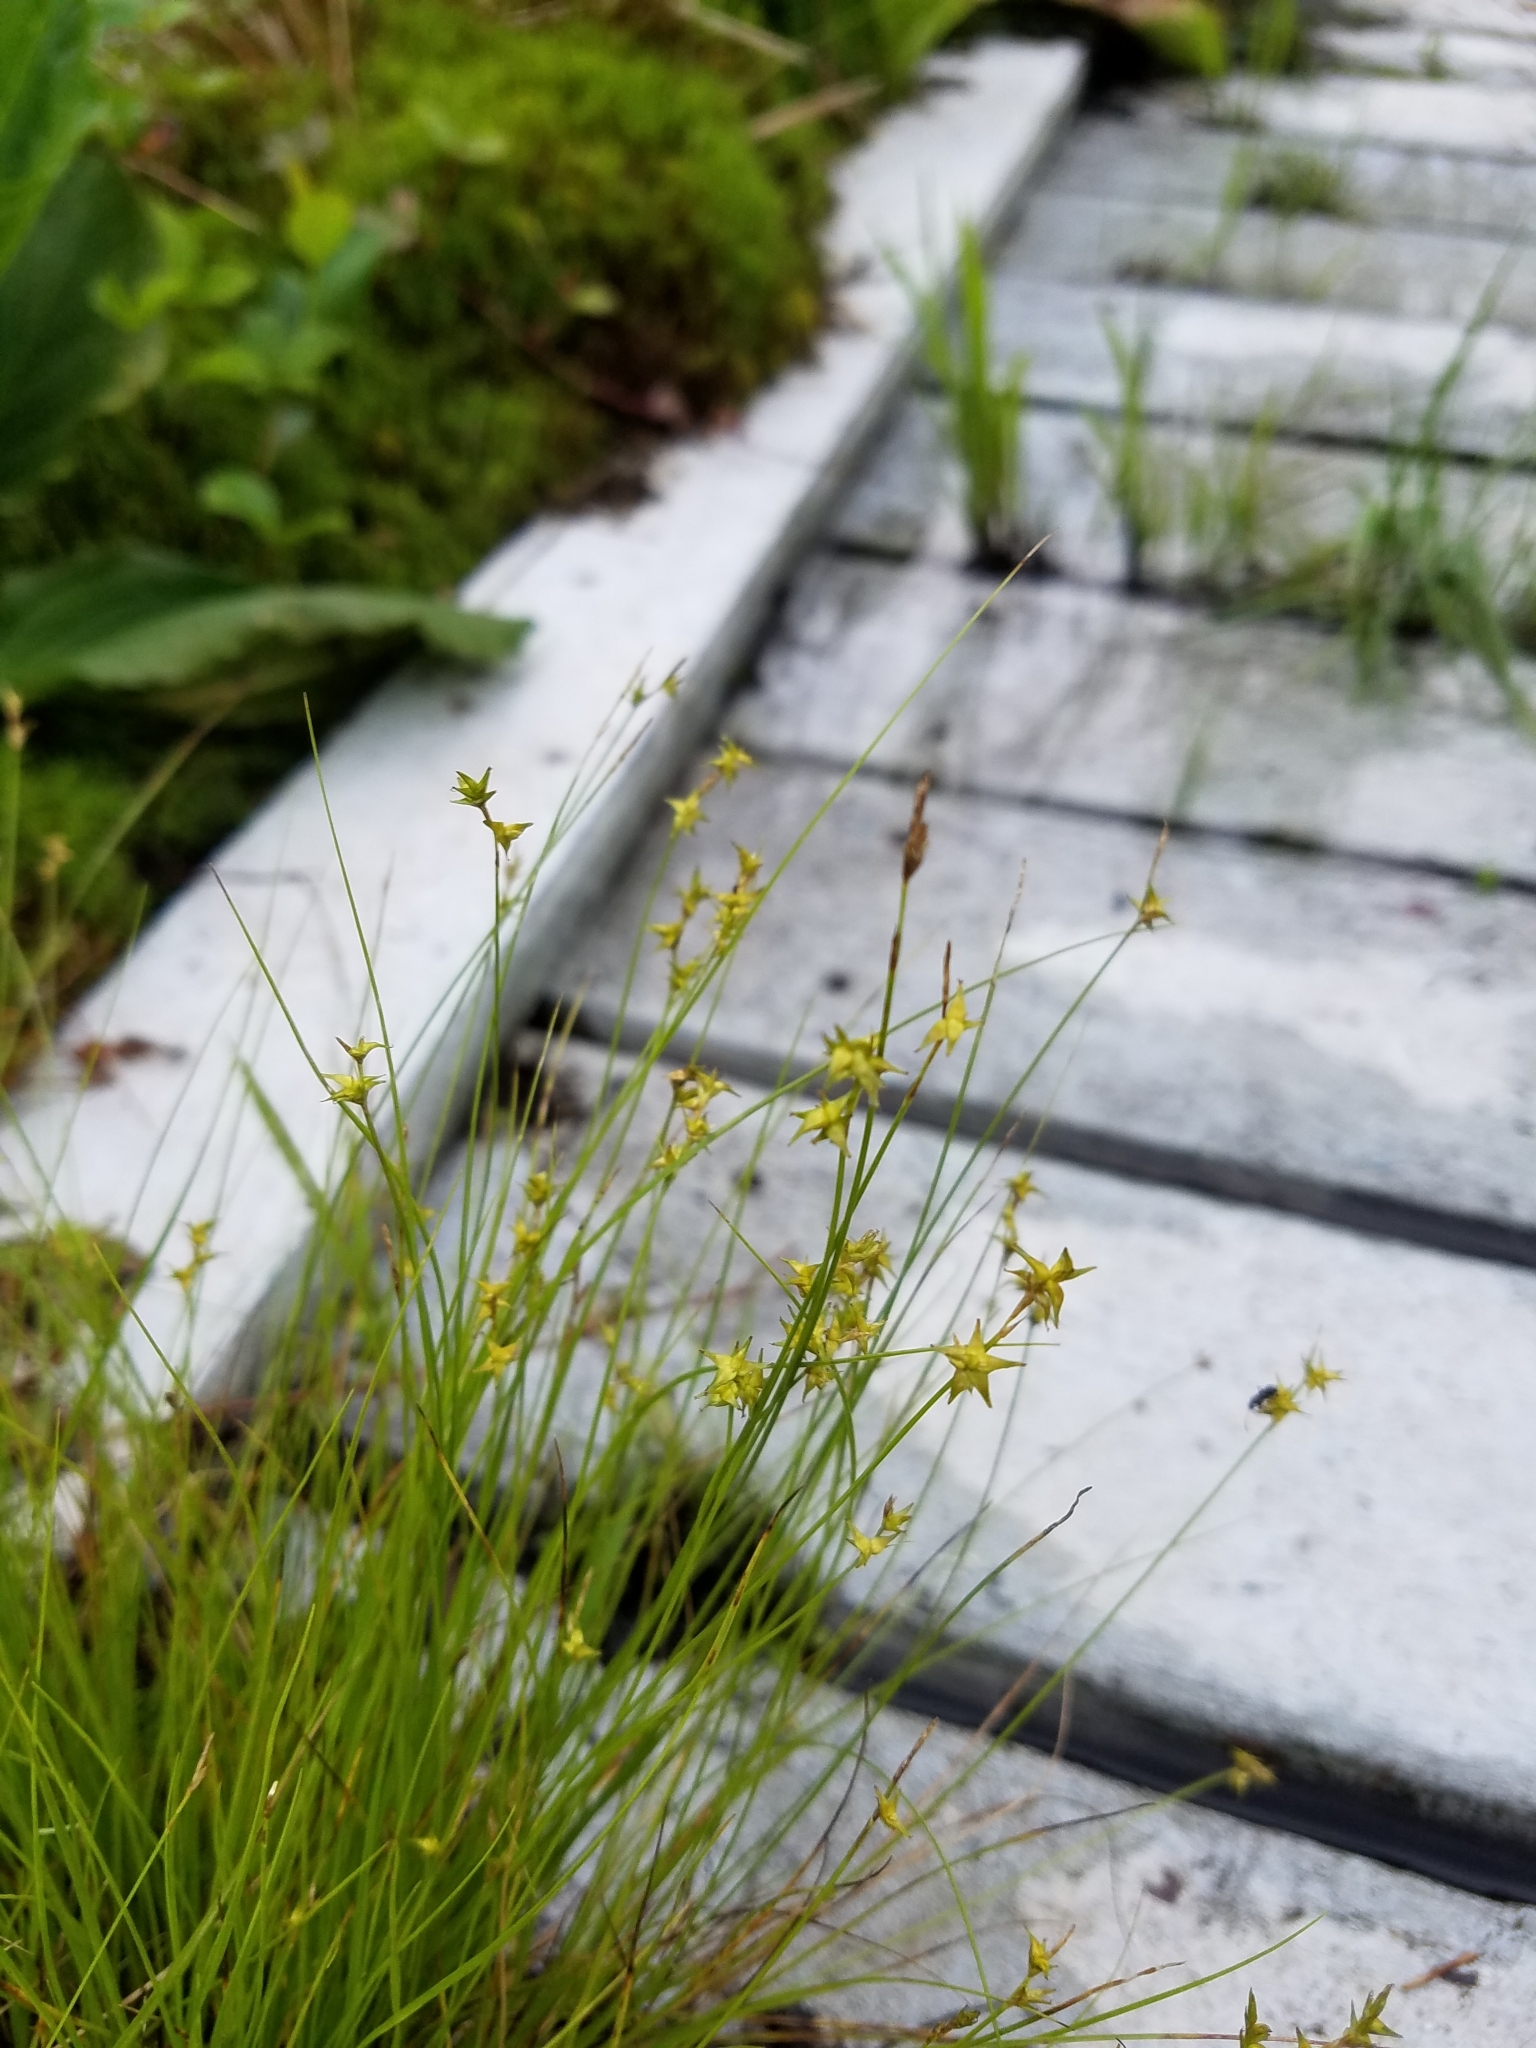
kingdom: Plantae
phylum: Tracheophyta
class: Liliopsida
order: Poales
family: Cyperaceae
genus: Carex
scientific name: Carex echinata
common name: Star sedge
